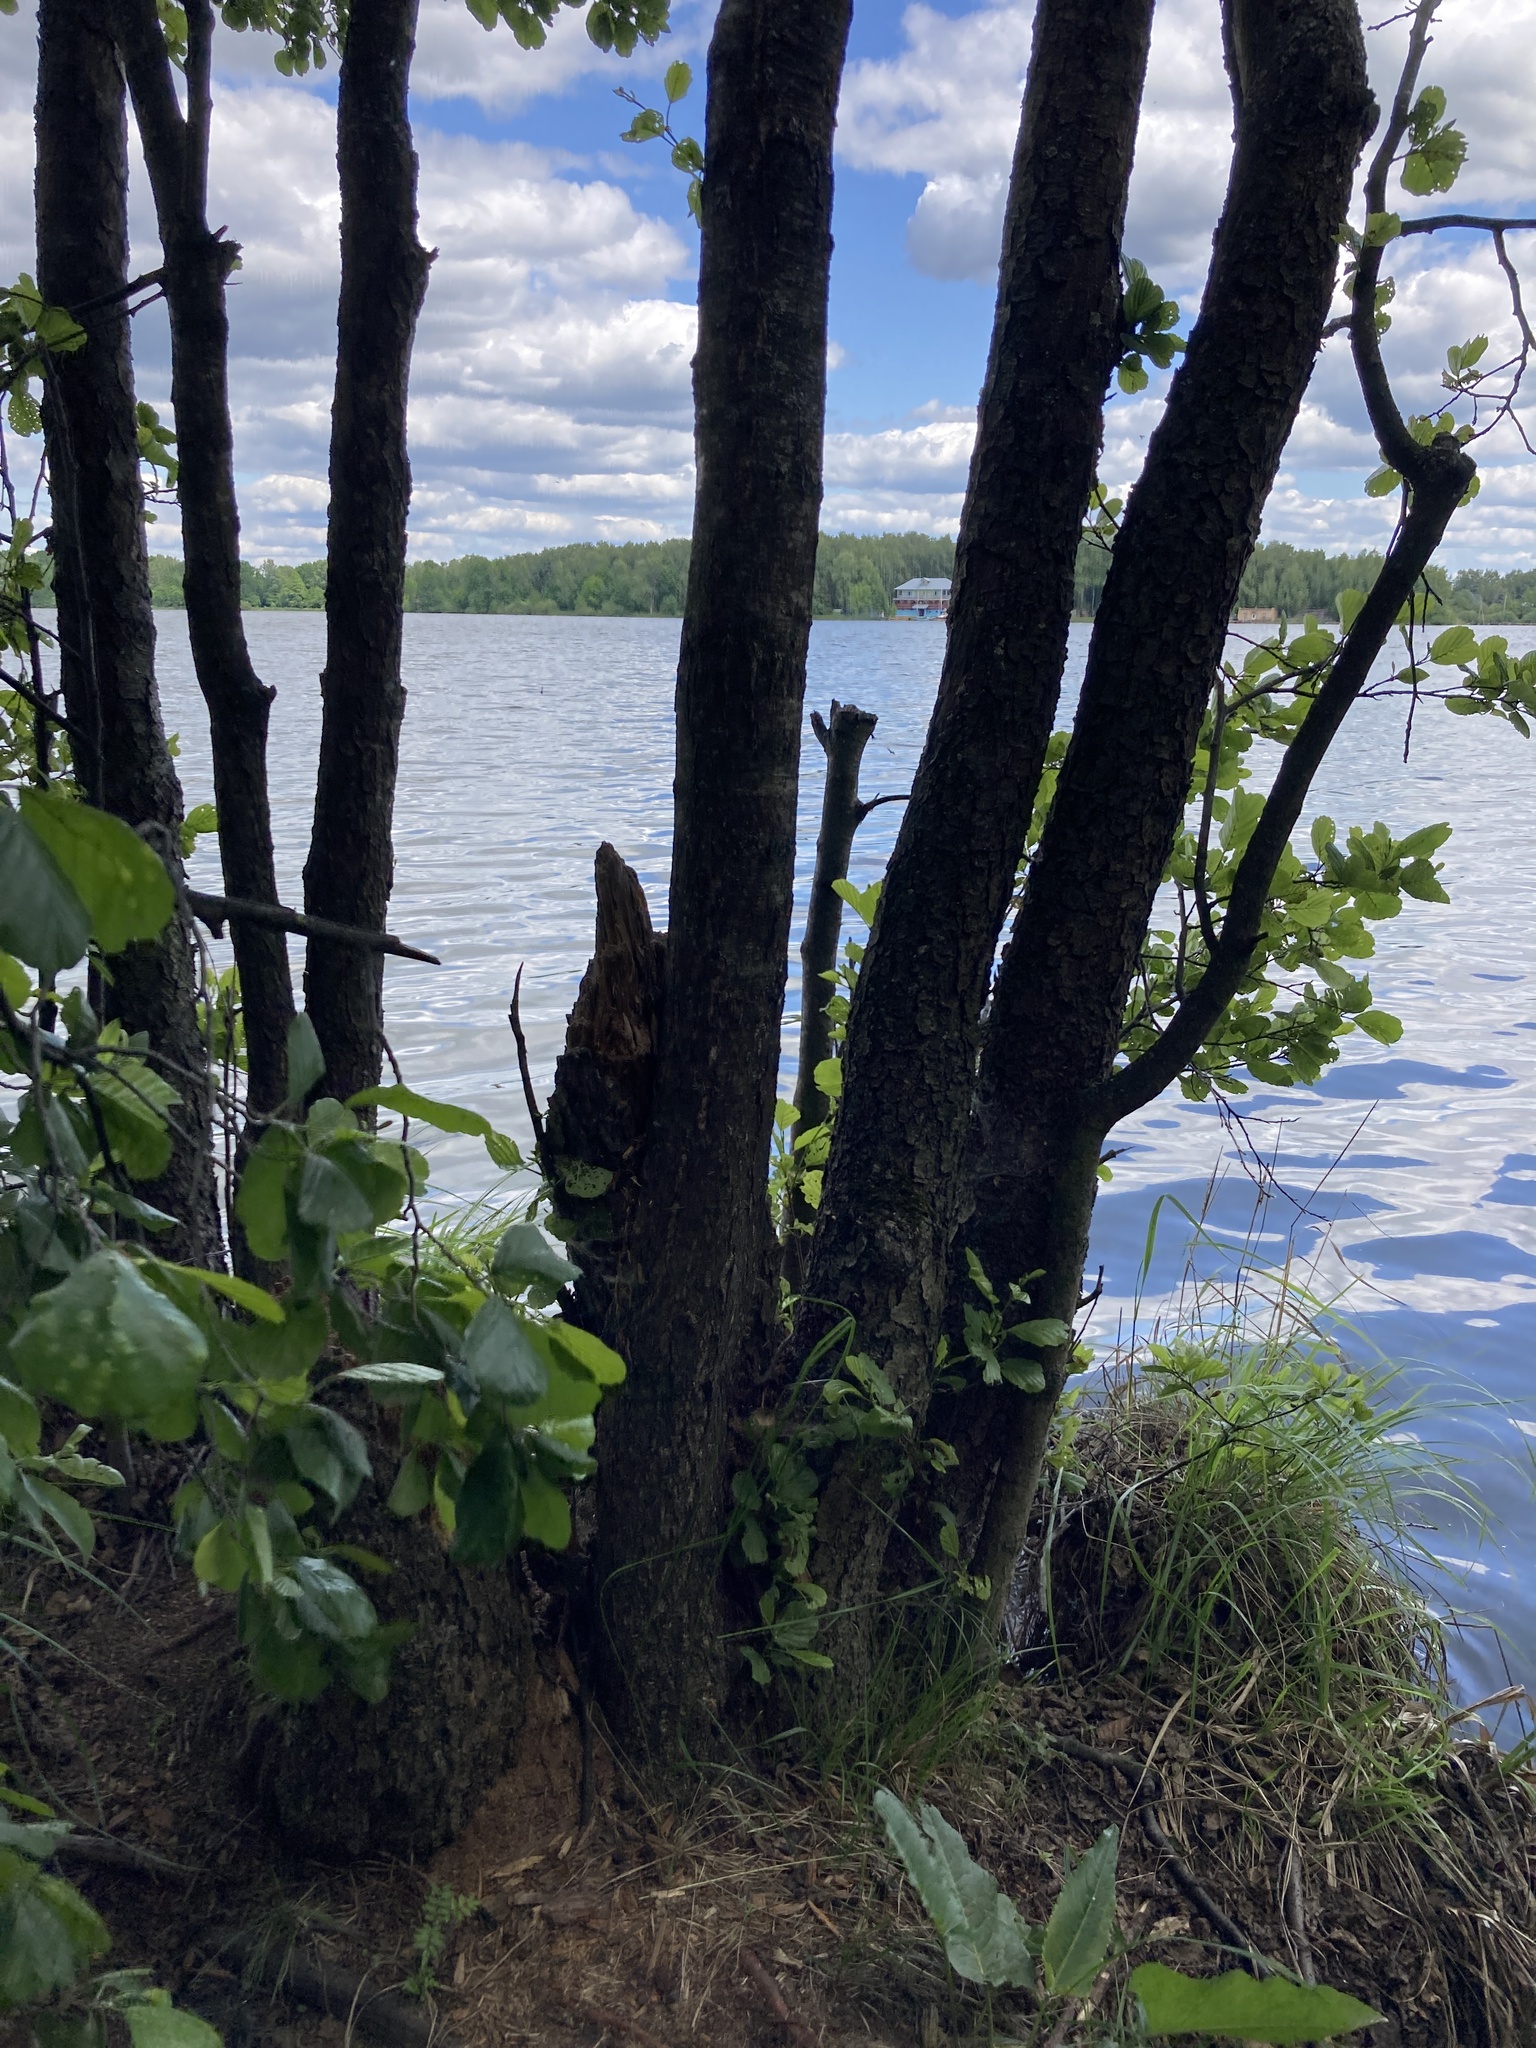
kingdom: Plantae
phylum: Tracheophyta
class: Magnoliopsida
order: Fagales
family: Betulaceae
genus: Alnus
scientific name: Alnus glutinosa
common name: Black alder
